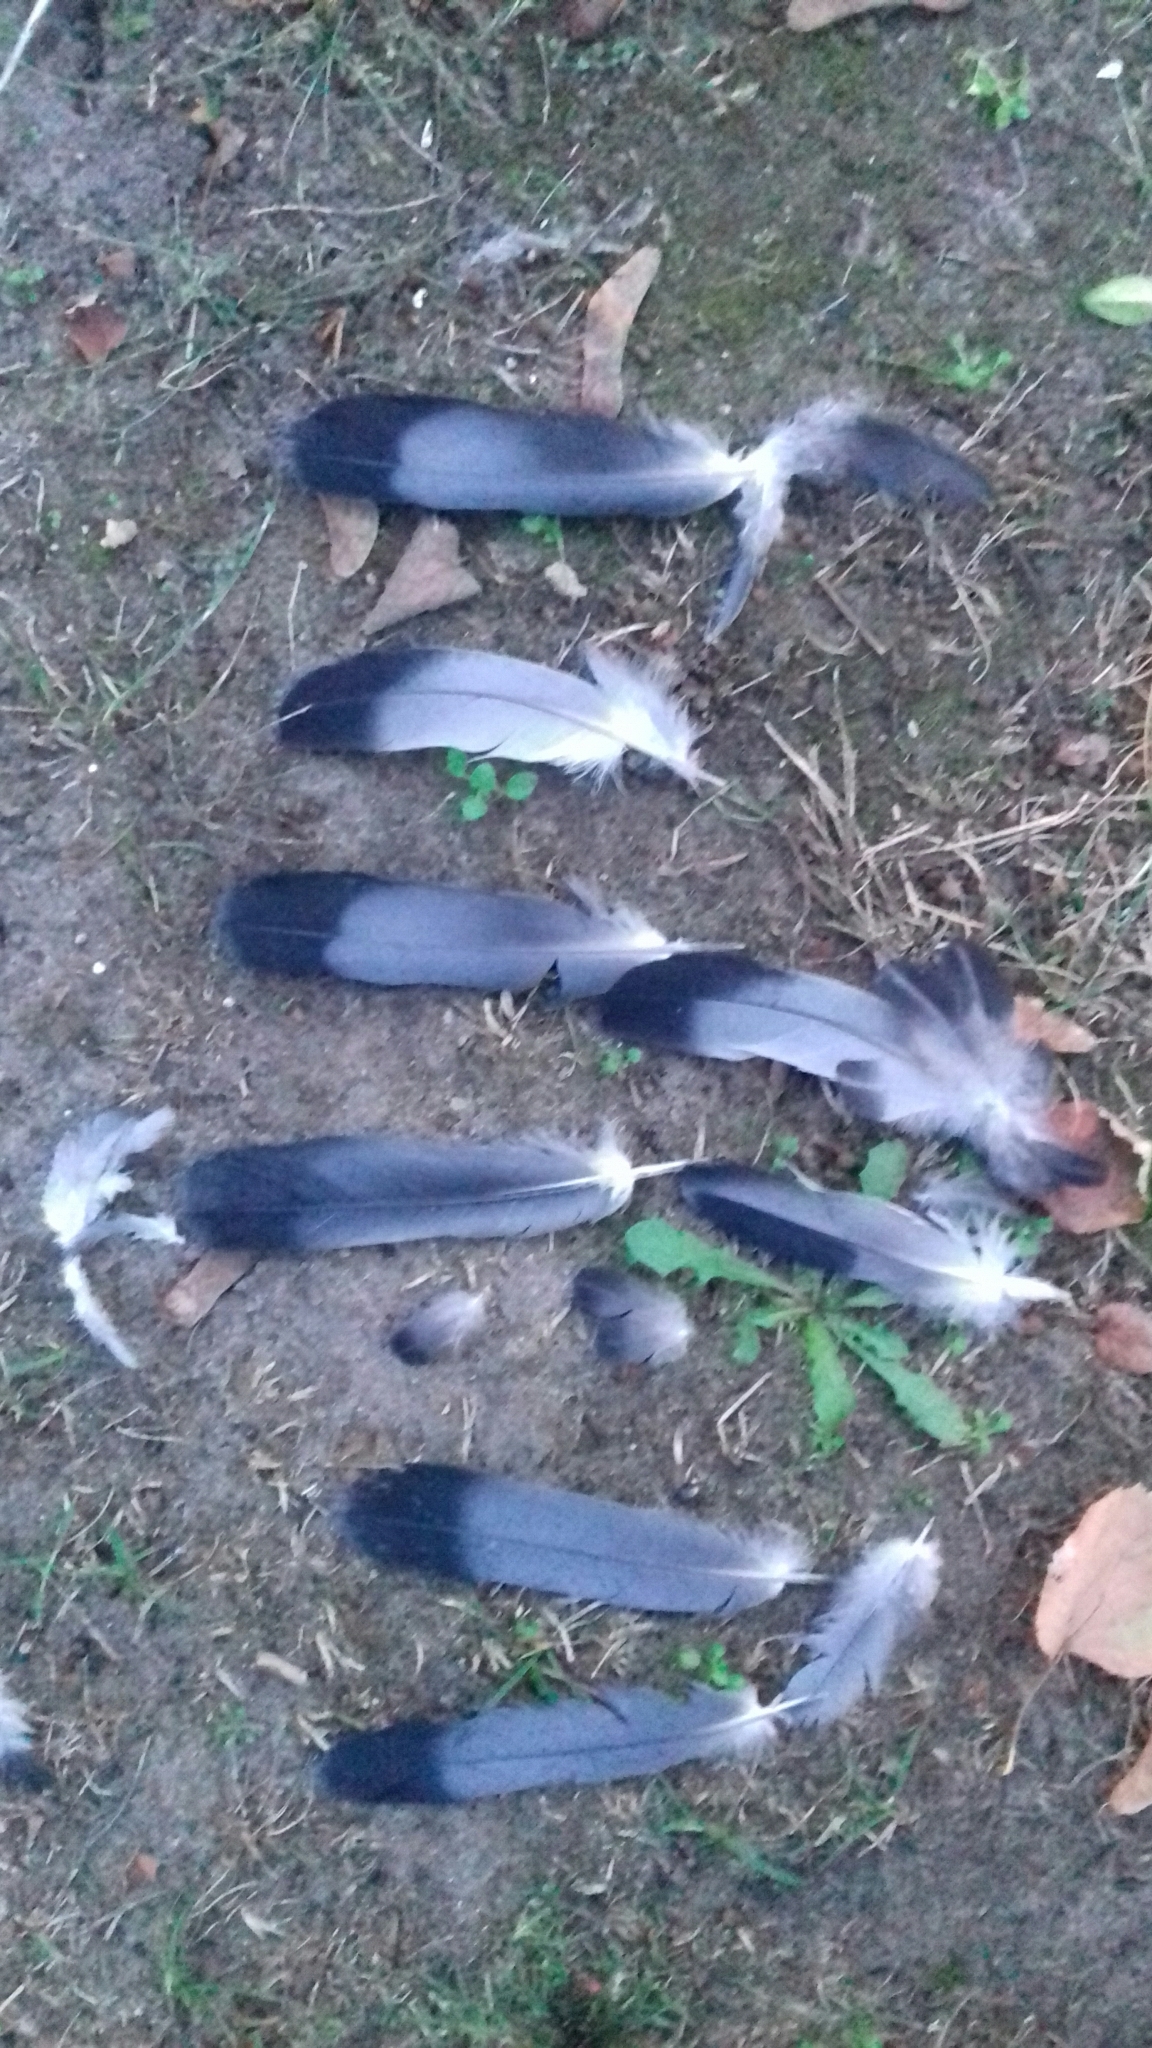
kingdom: Animalia
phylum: Chordata
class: Aves
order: Columbiformes
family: Columbidae
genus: Columba
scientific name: Columba livia
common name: Rock pigeon
